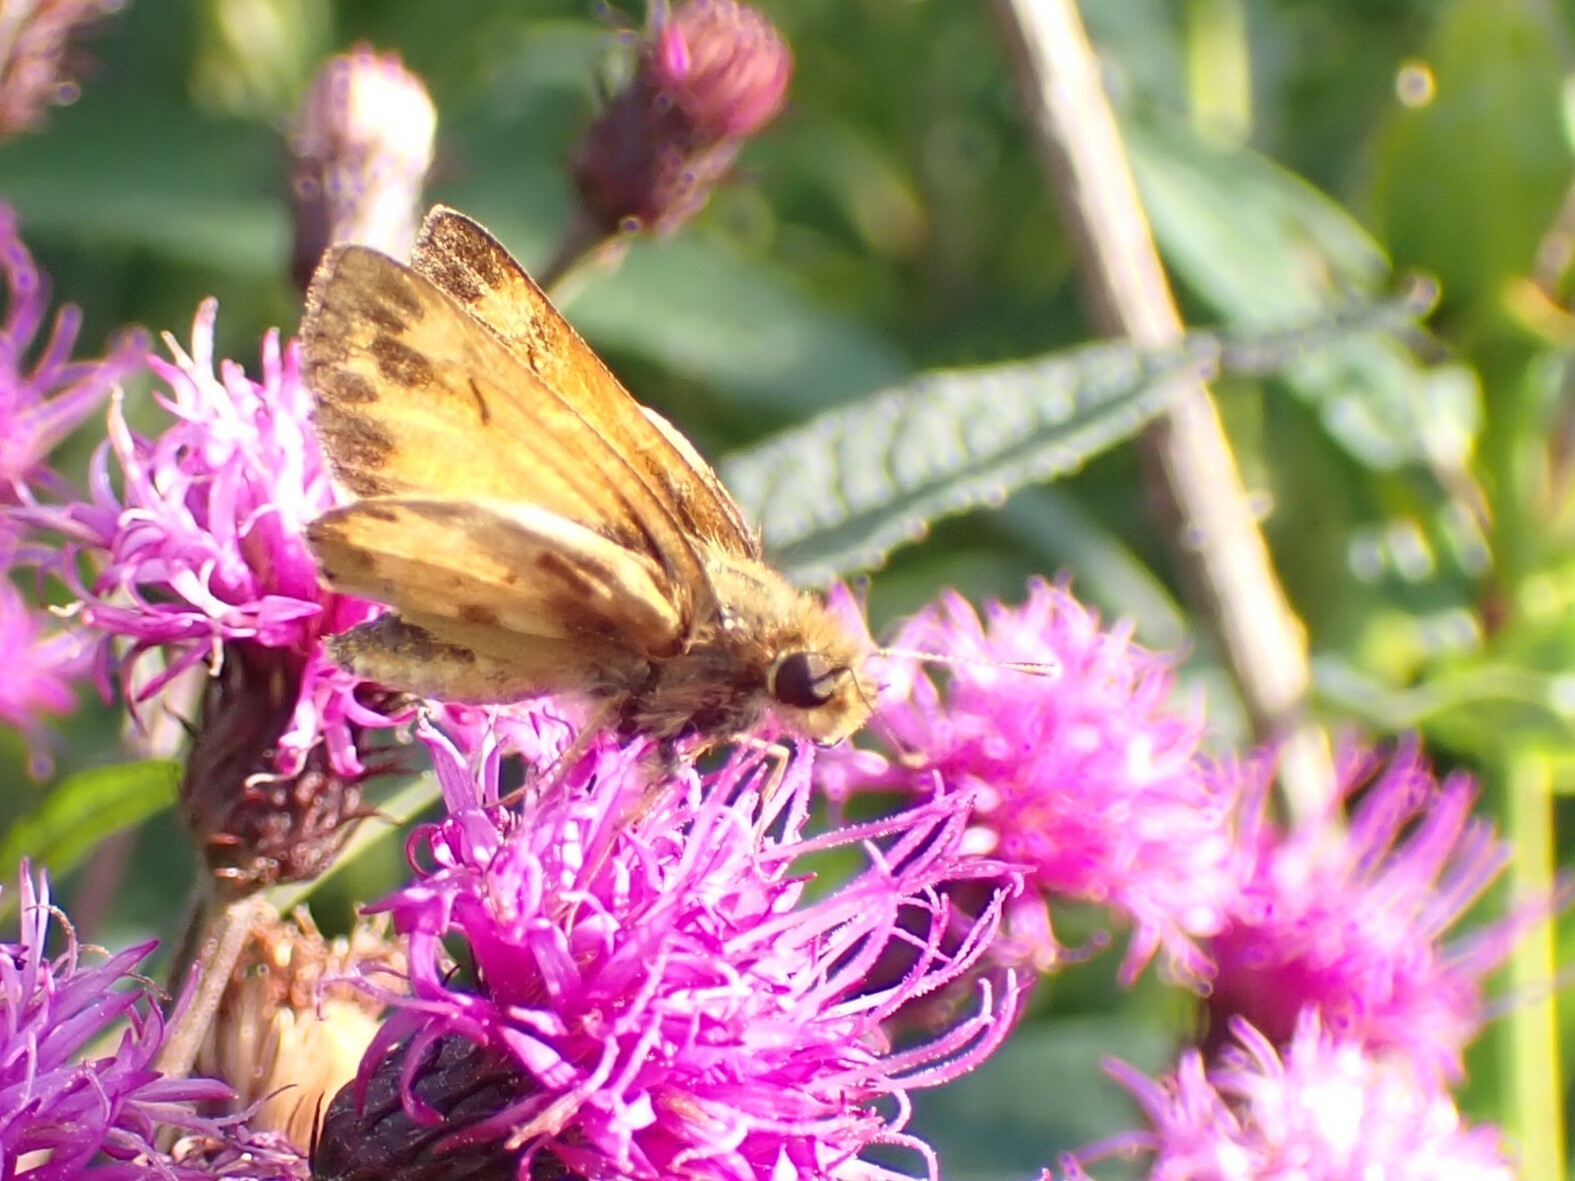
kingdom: Animalia
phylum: Arthropoda
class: Insecta
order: Lepidoptera
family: Hesperiidae
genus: Lon
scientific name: Lon zabulon
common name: Zabulon skipper
